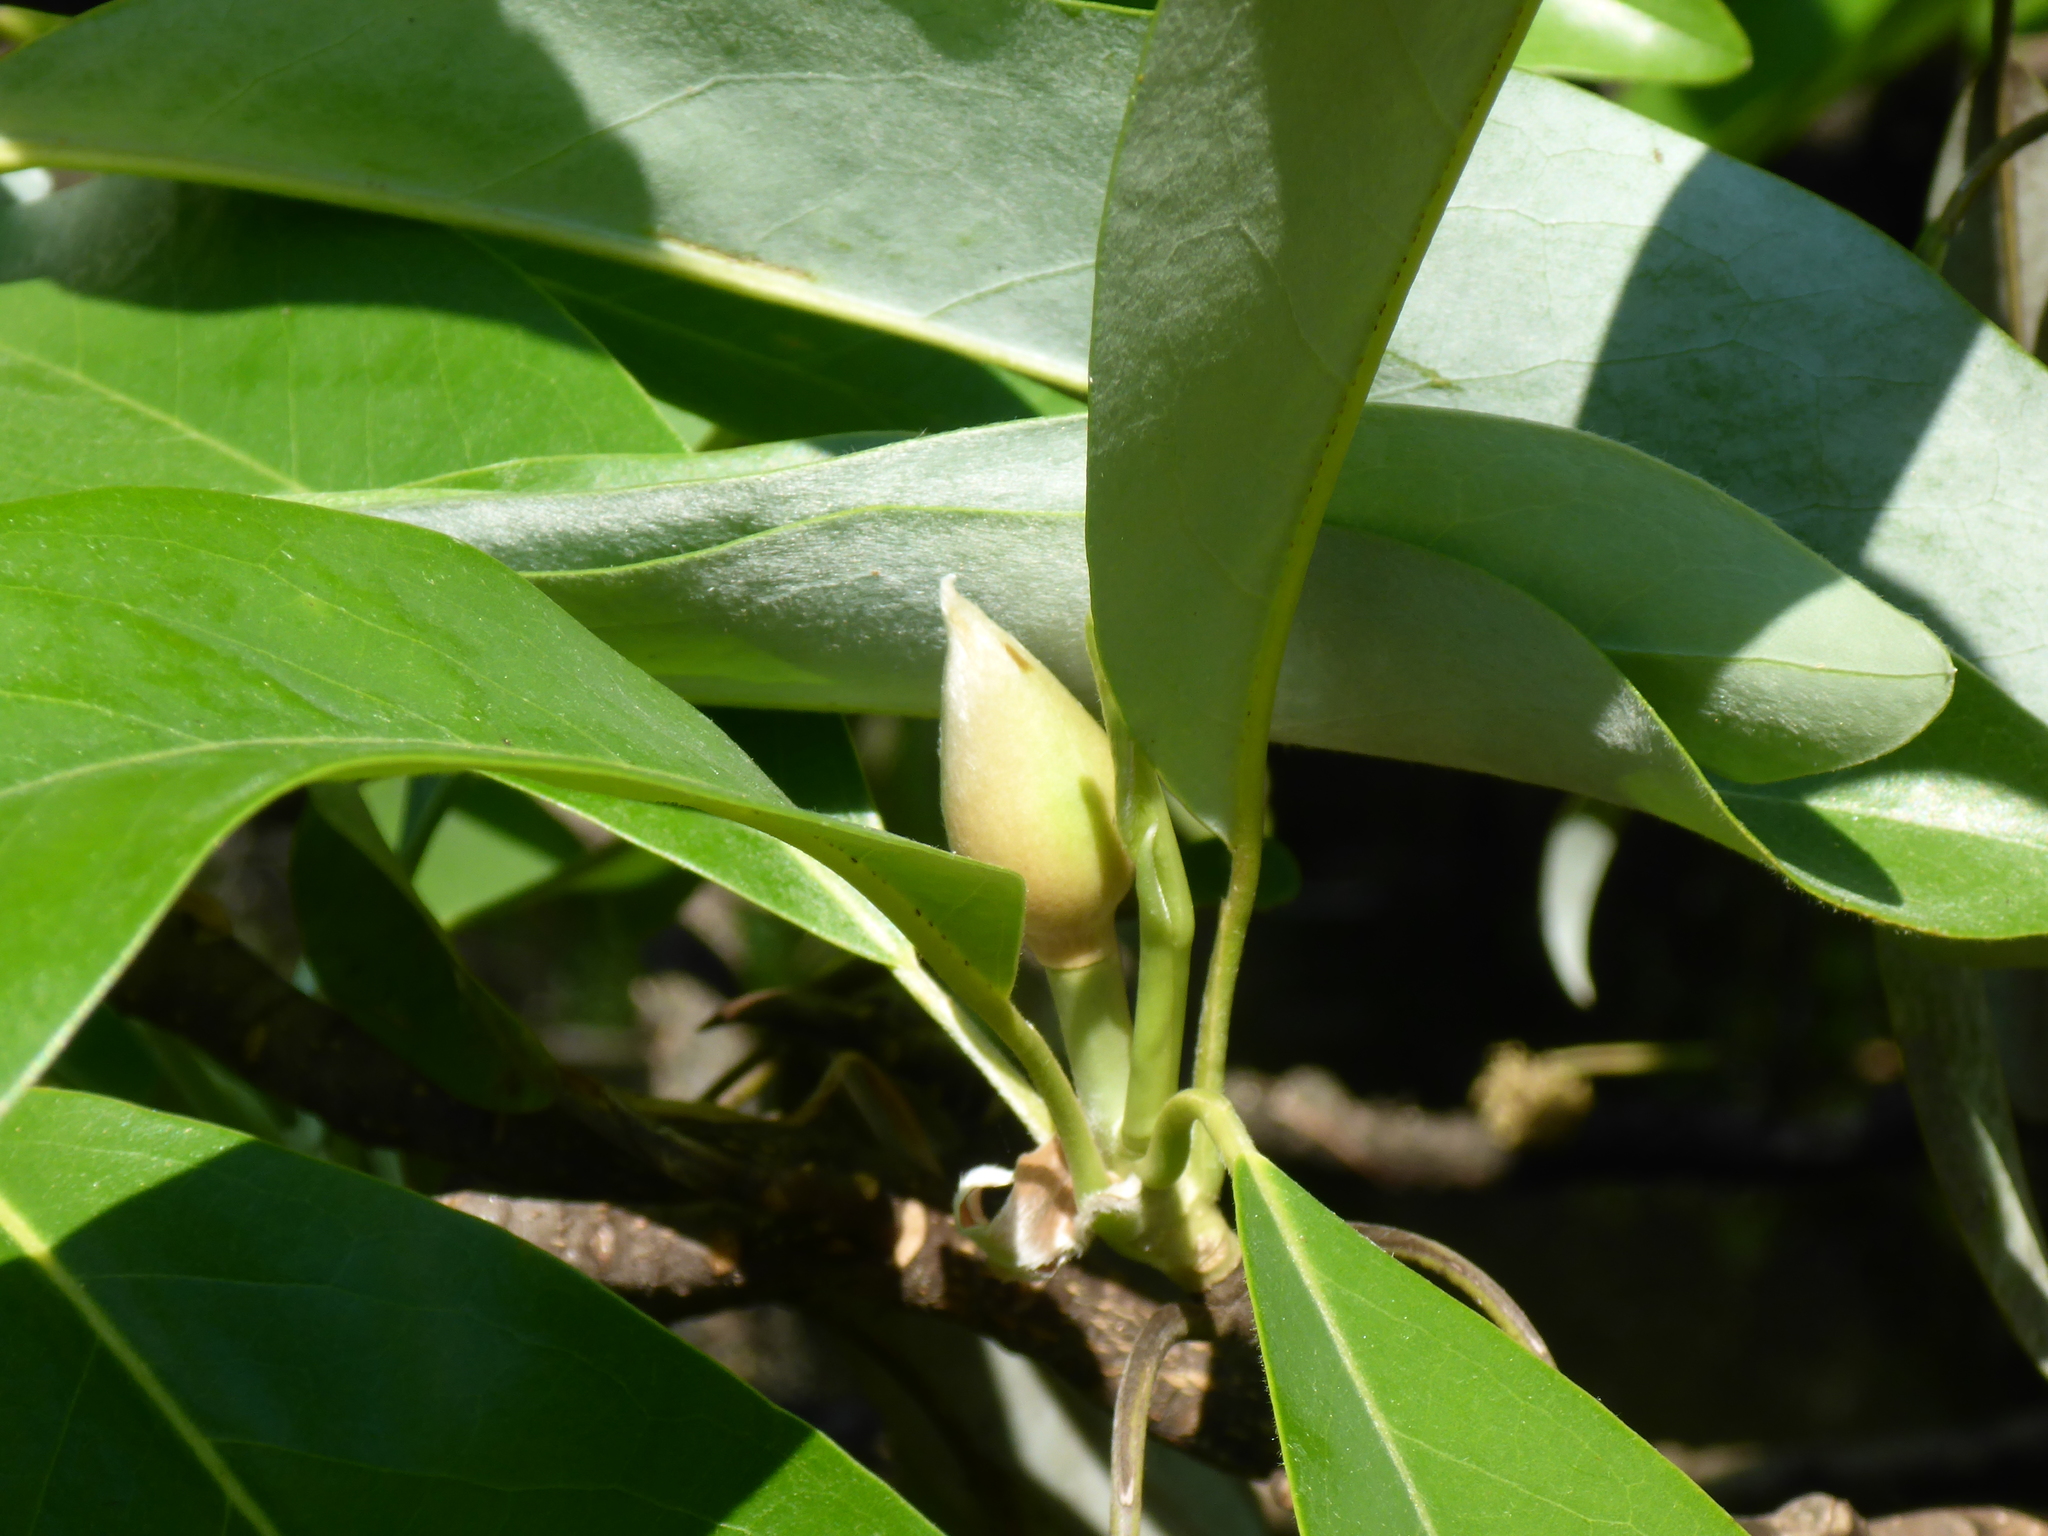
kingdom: Plantae
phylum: Tracheophyta
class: Magnoliopsida
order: Magnoliales
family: Magnoliaceae
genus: Magnolia
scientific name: Magnolia virginiana
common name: Swamp bay
